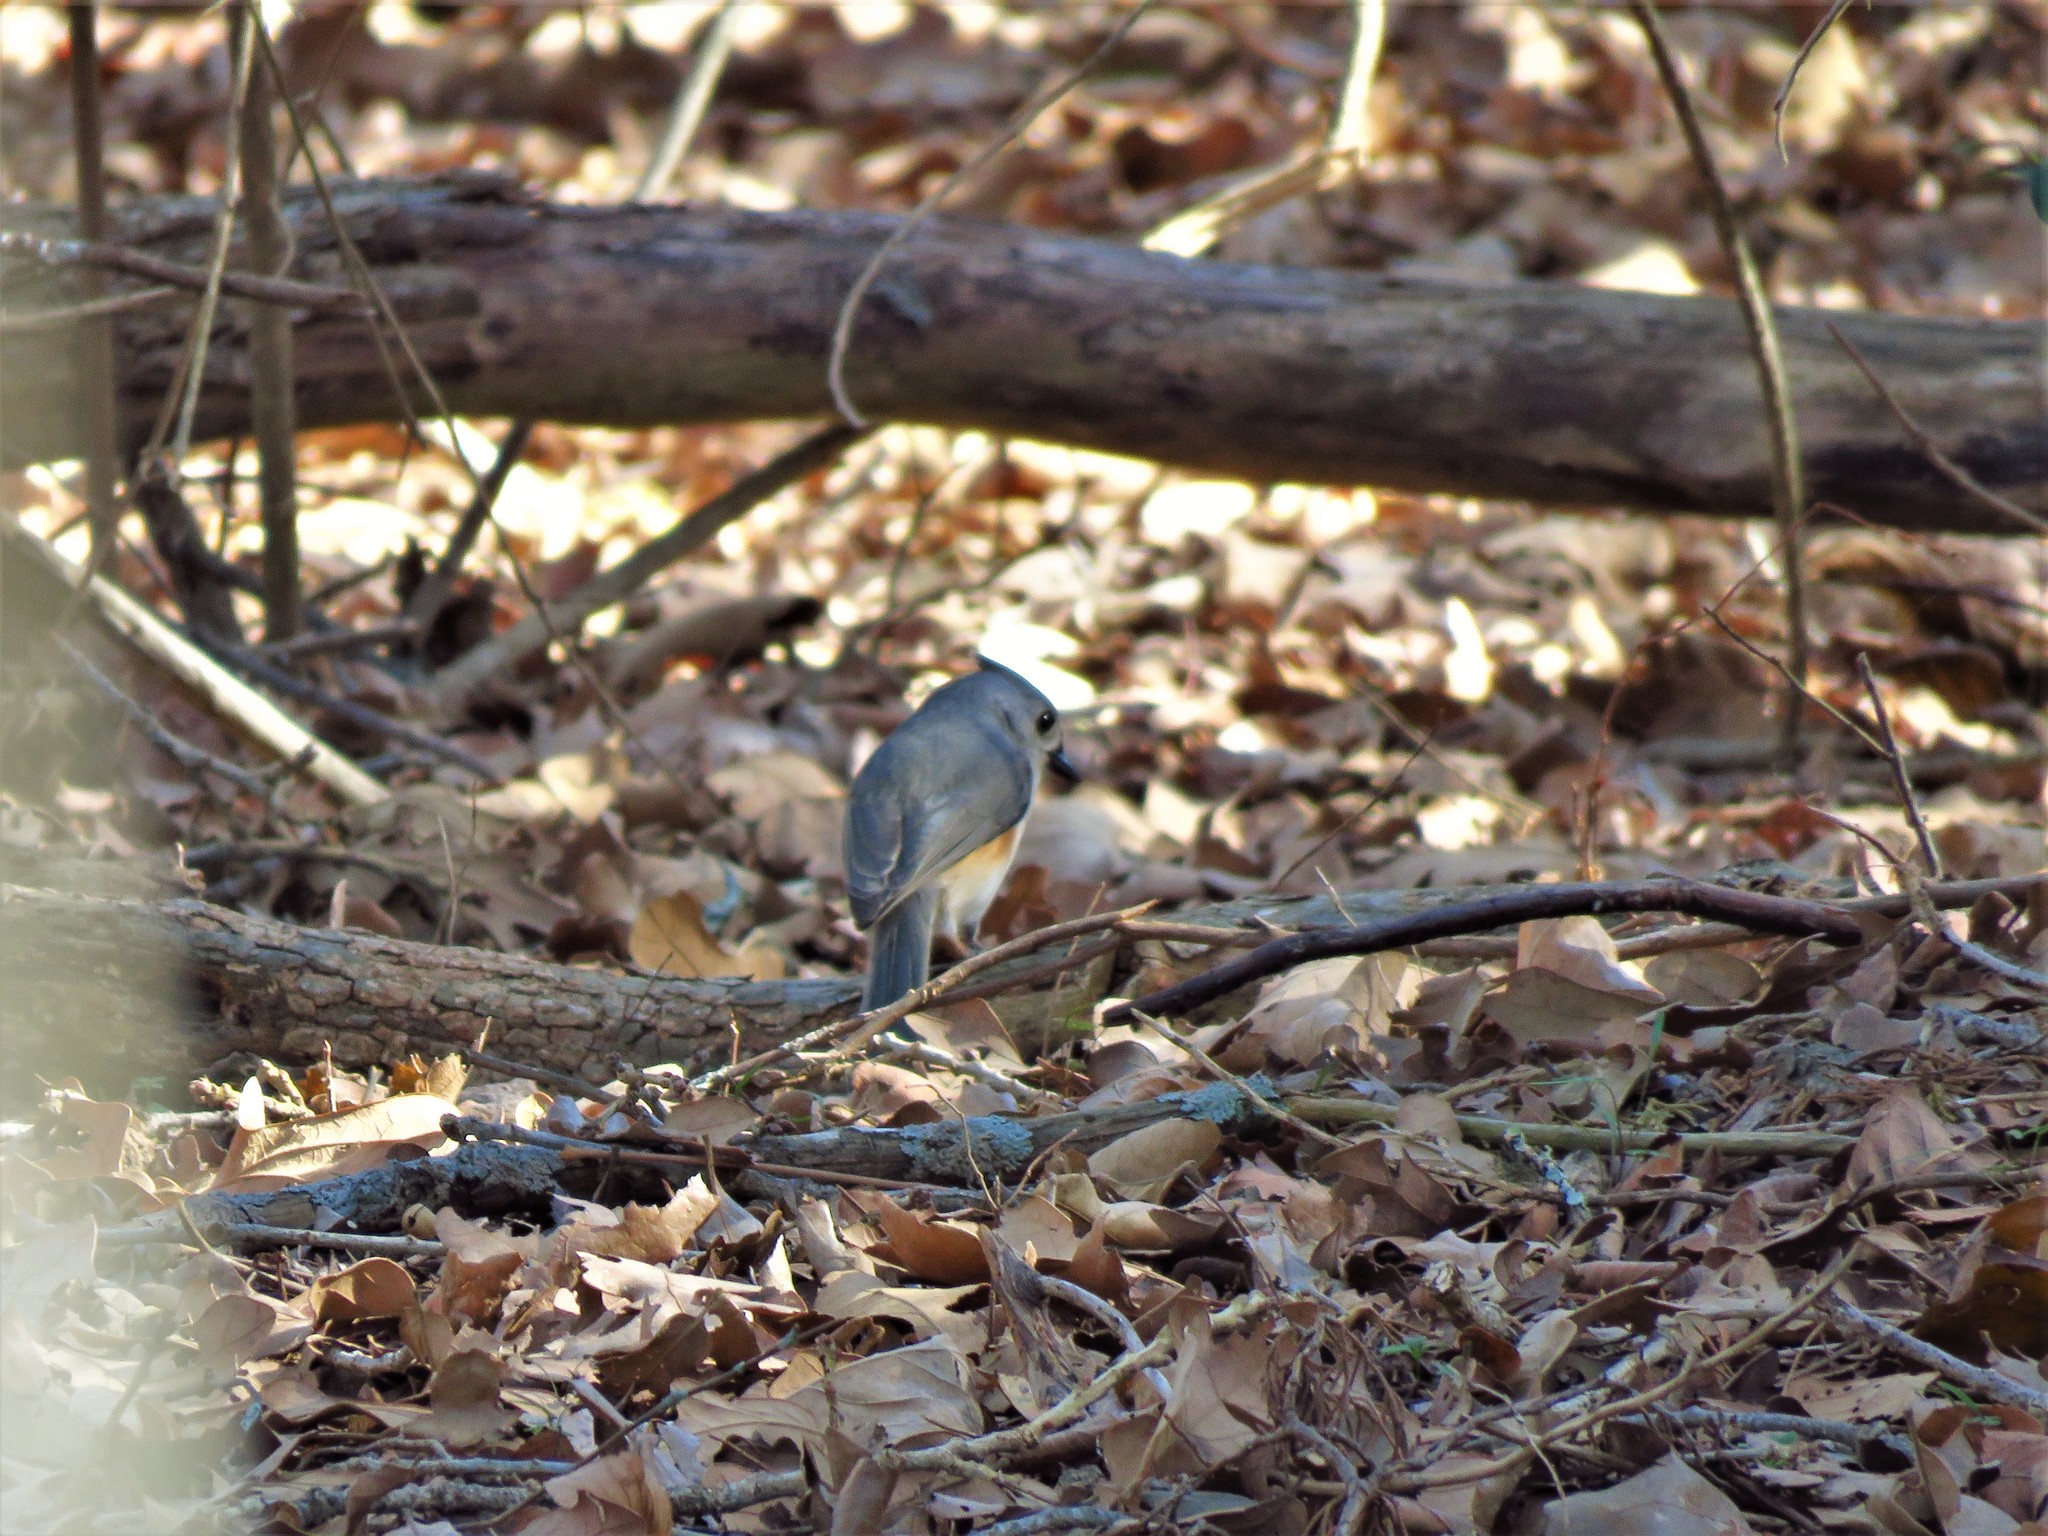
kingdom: Animalia
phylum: Chordata
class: Aves
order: Passeriformes
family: Paridae
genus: Baeolophus
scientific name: Baeolophus bicolor
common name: Tufted titmouse
